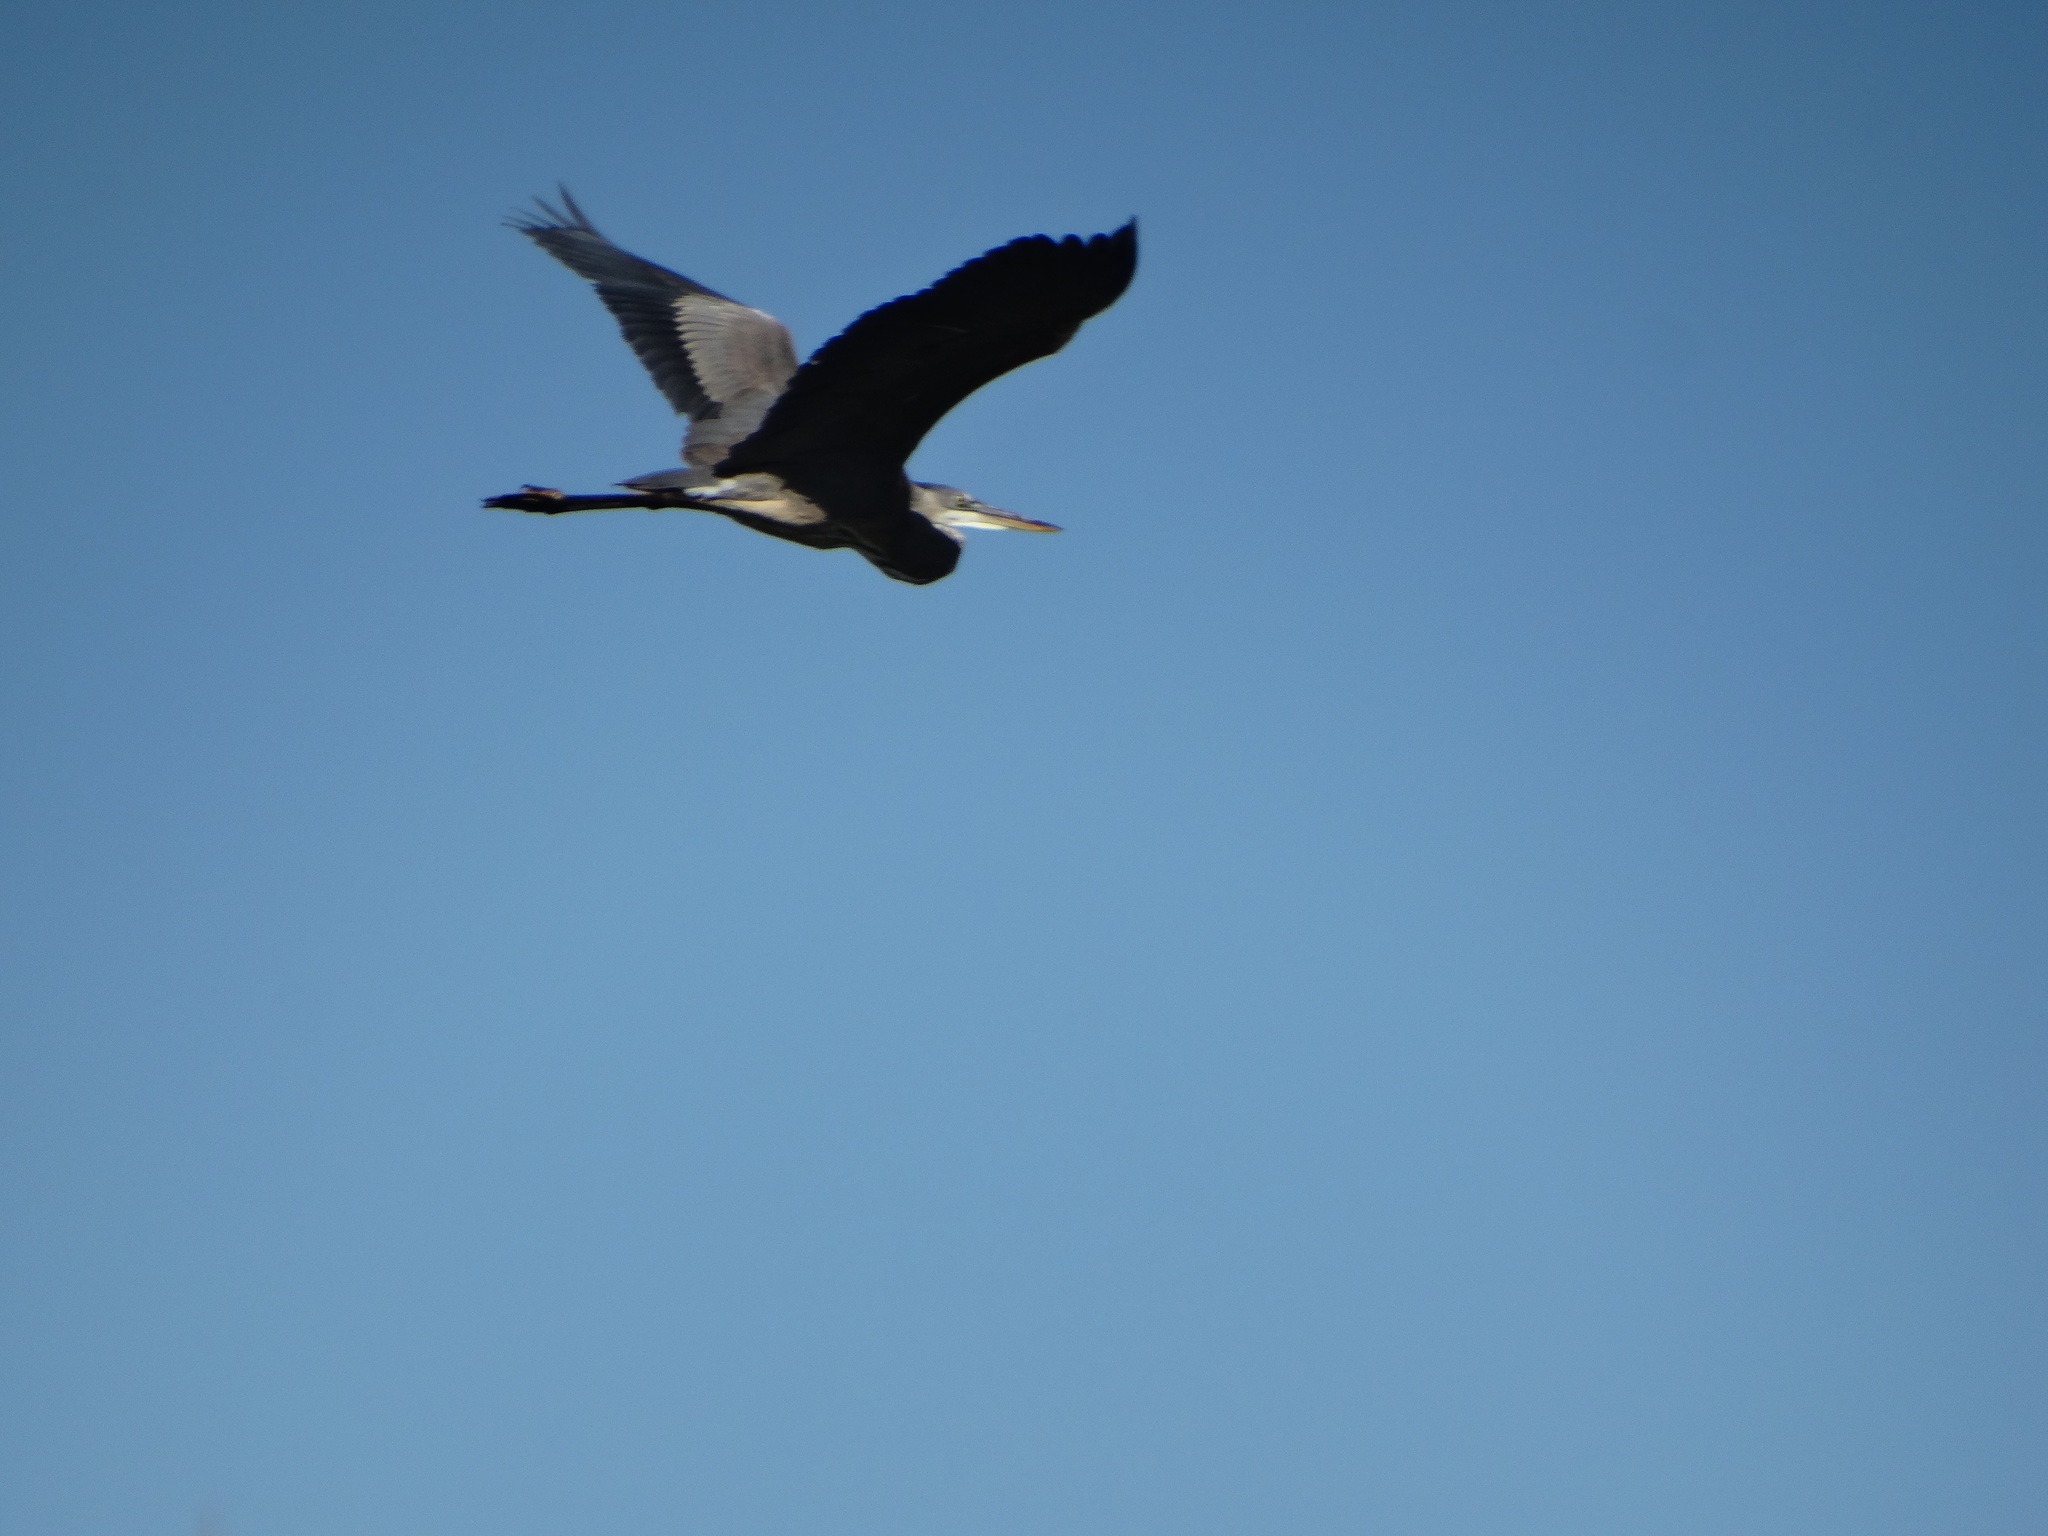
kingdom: Animalia
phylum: Chordata
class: Aves
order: Pelecaniformes
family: Ardeidae
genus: Ardea
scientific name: Ardea herodias
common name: Great blue heron
